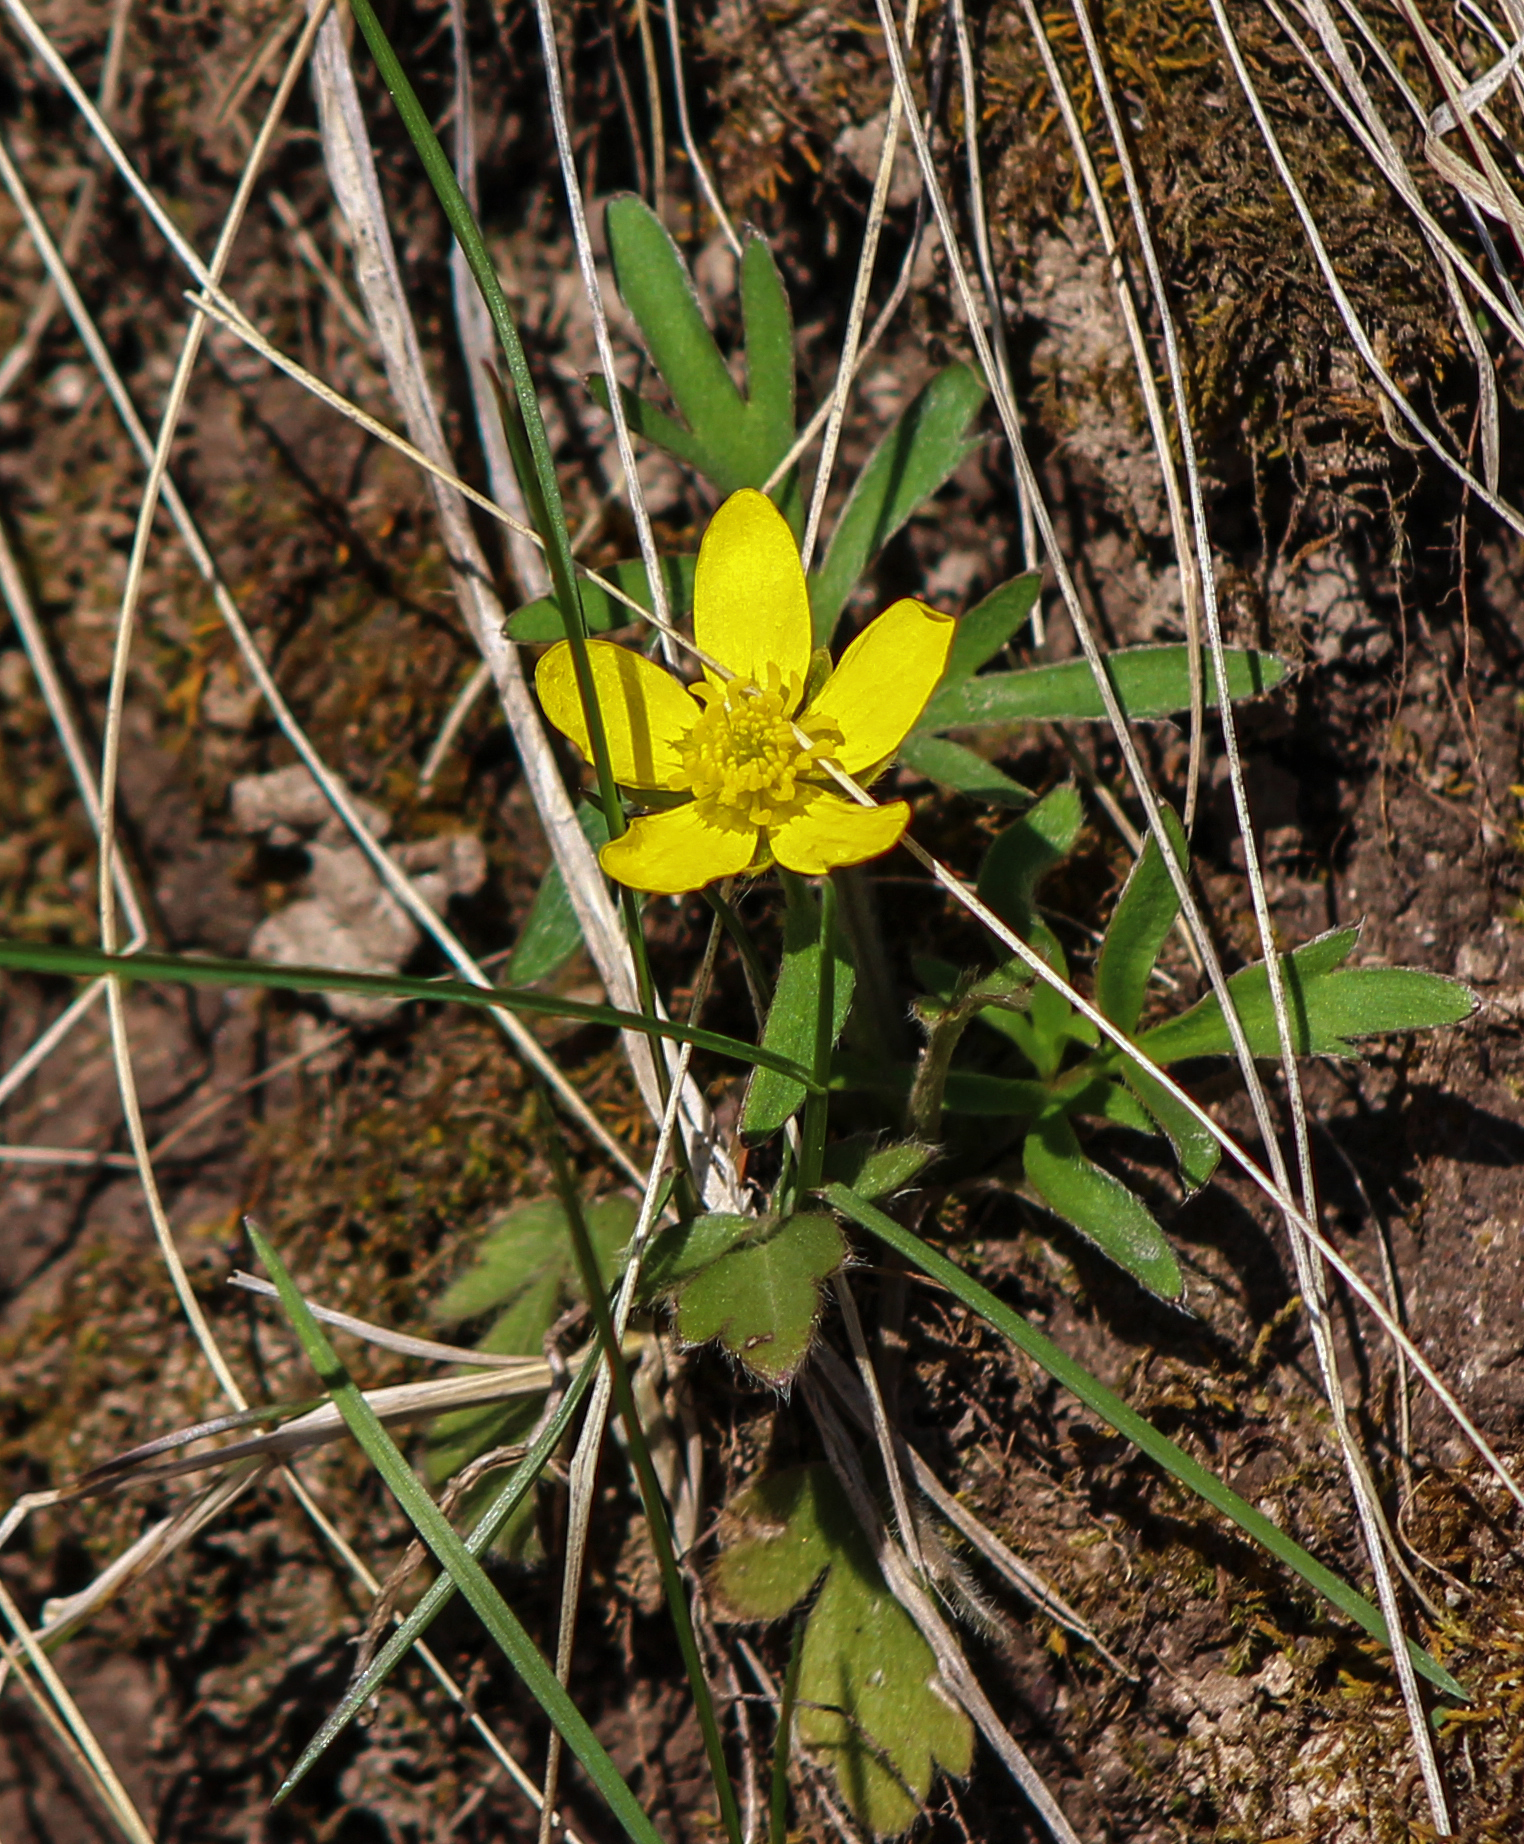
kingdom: Plantae
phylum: Tracheophyta
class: Magnoliopsida
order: Ranunculales
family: Ranunculaceae
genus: Ranunculus
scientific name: Ranunculus fascicularis
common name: Early buttercup
